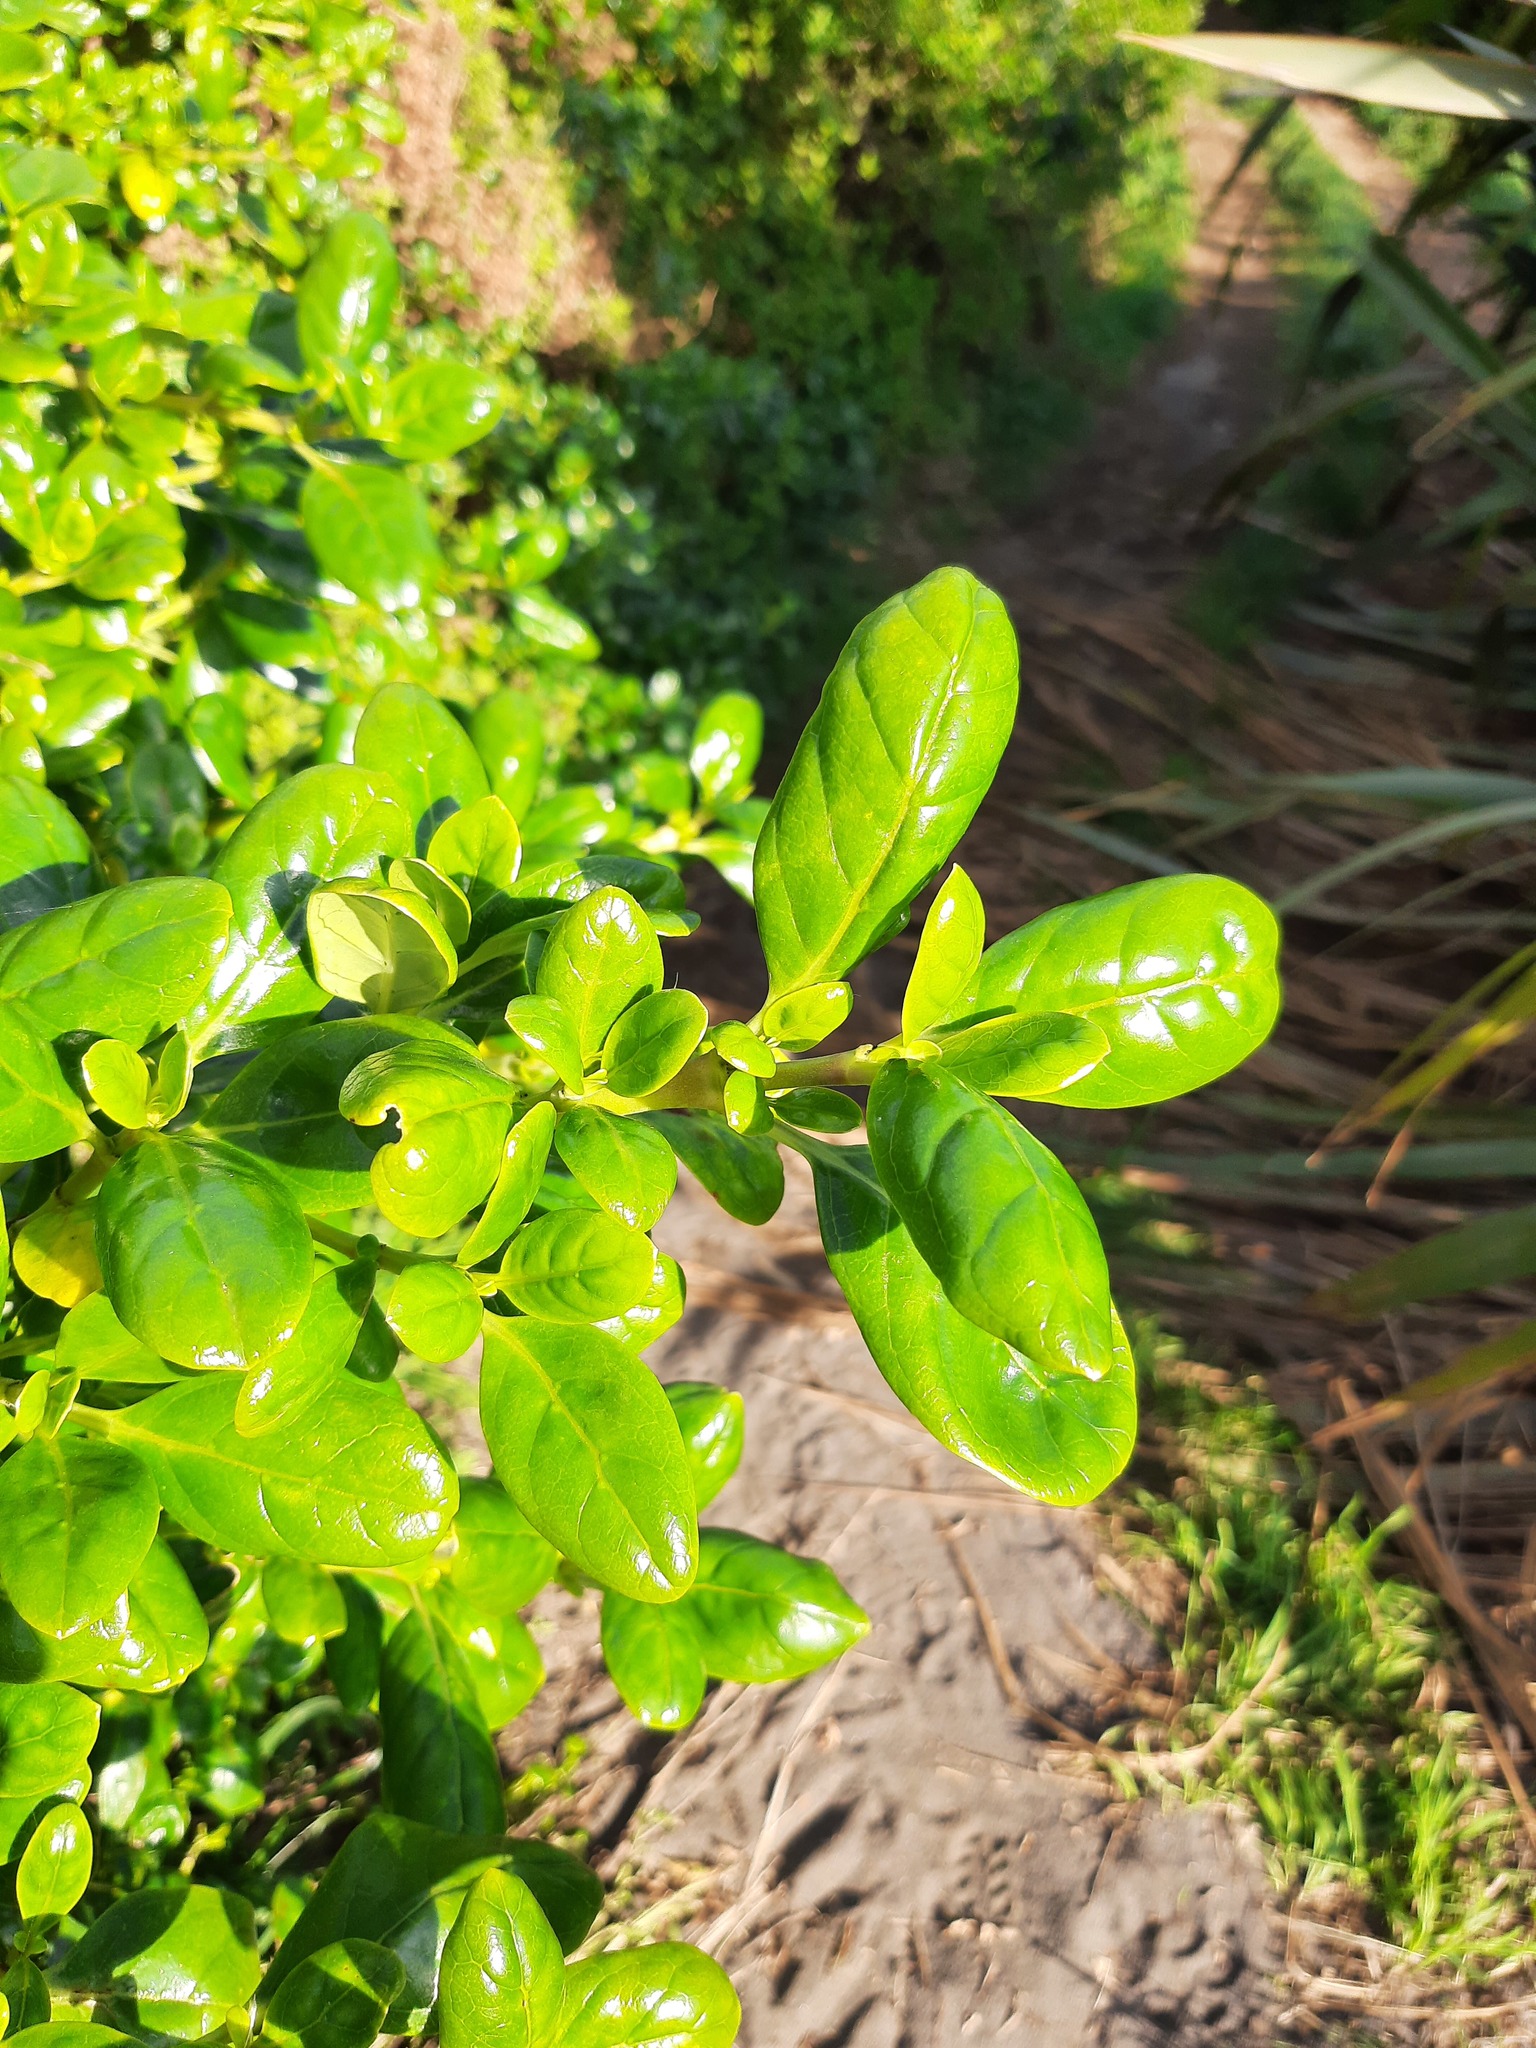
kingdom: Plantae
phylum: Tracheophyta
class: Magnoliopsida
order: Gentianales
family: Rubiaceae
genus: Coprosma
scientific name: Coprosma repens
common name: Tree bedstraw
